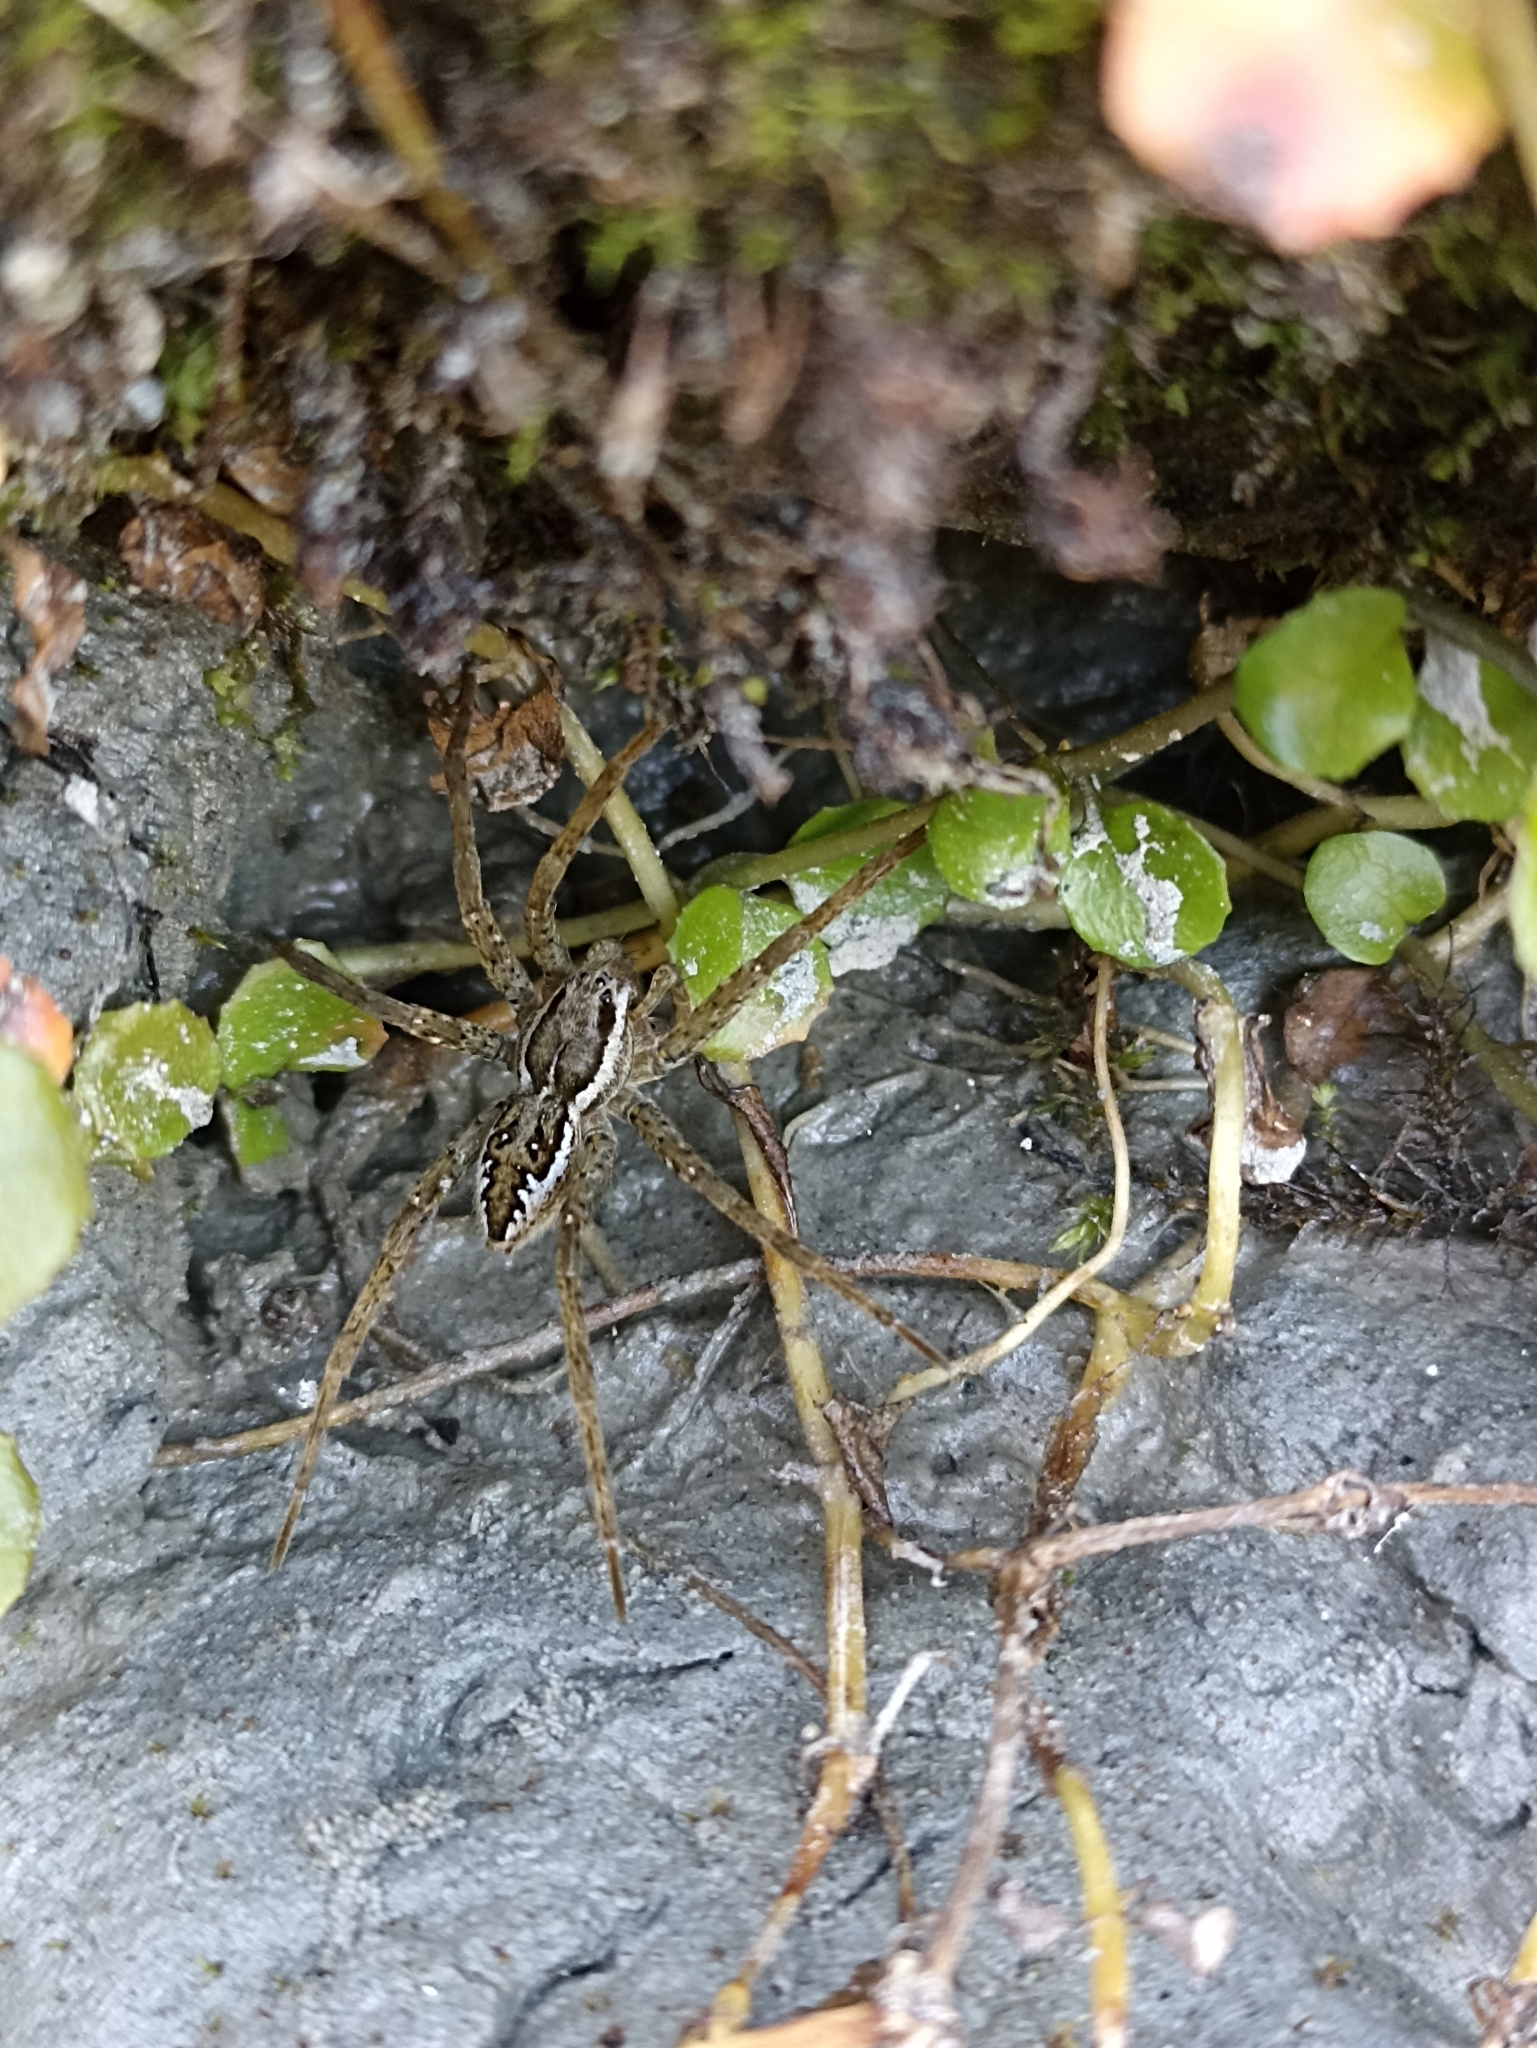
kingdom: Animalia
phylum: Arthropoda
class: Arachnida
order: Araneae
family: Pisauridae
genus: Dolomedes
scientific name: Dolomedes dondalei
